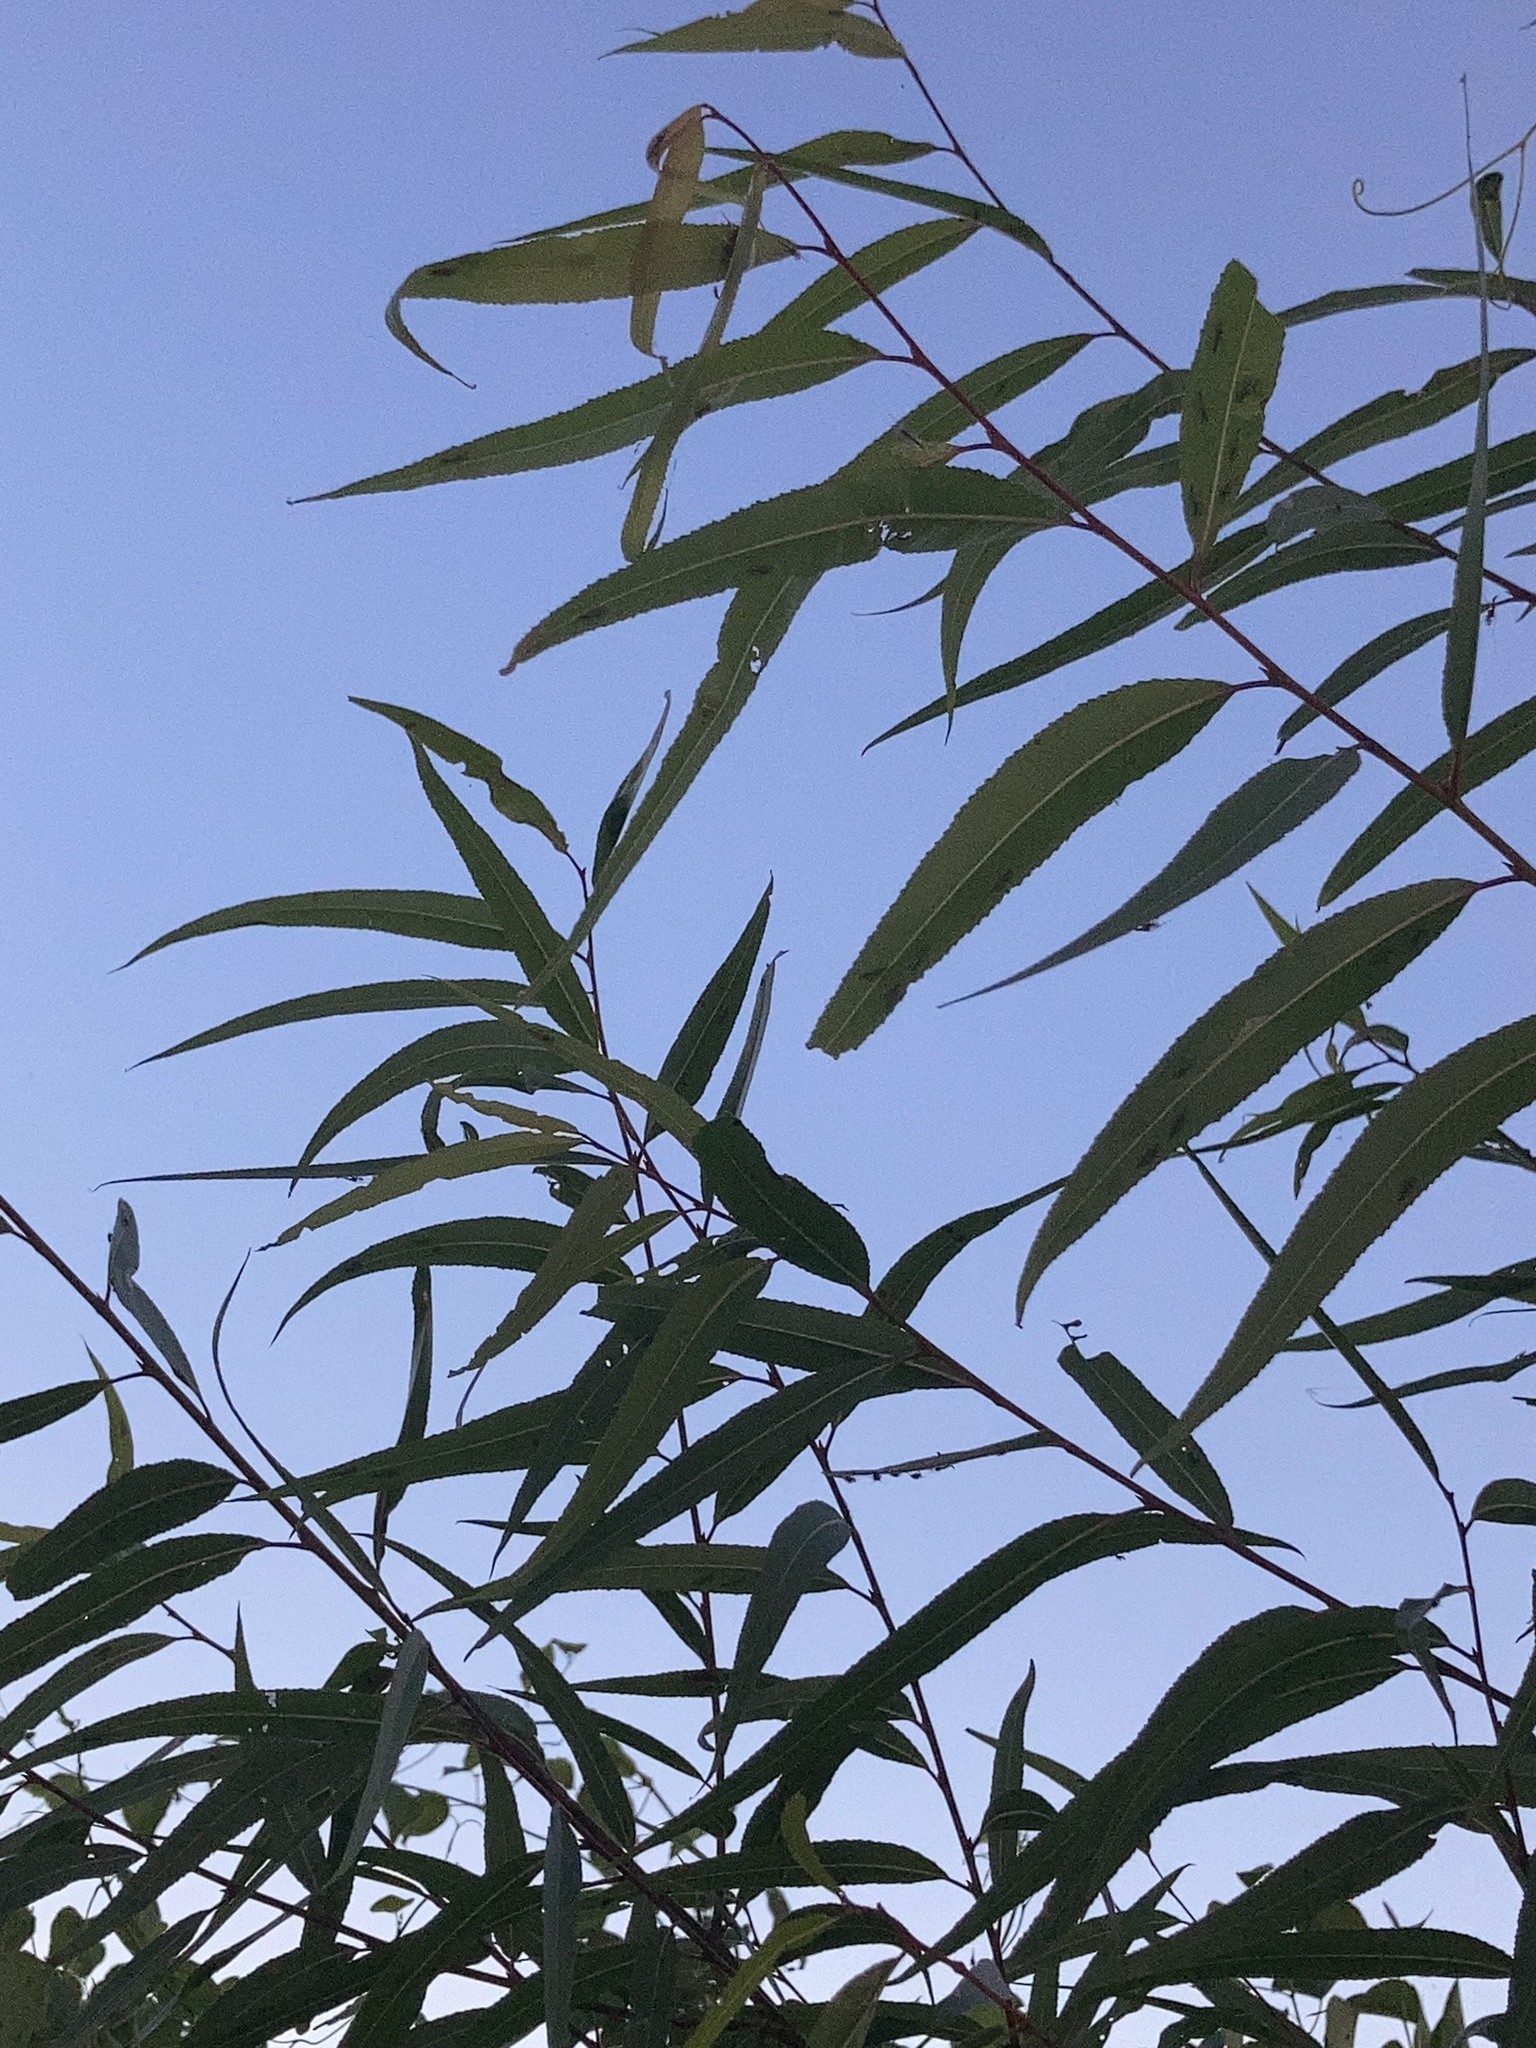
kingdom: Plantae
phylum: Tracheophyta
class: Magnoliopsida
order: Malpighiales
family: Salicaceae
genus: Salix
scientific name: Salix nigra
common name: Black willow
